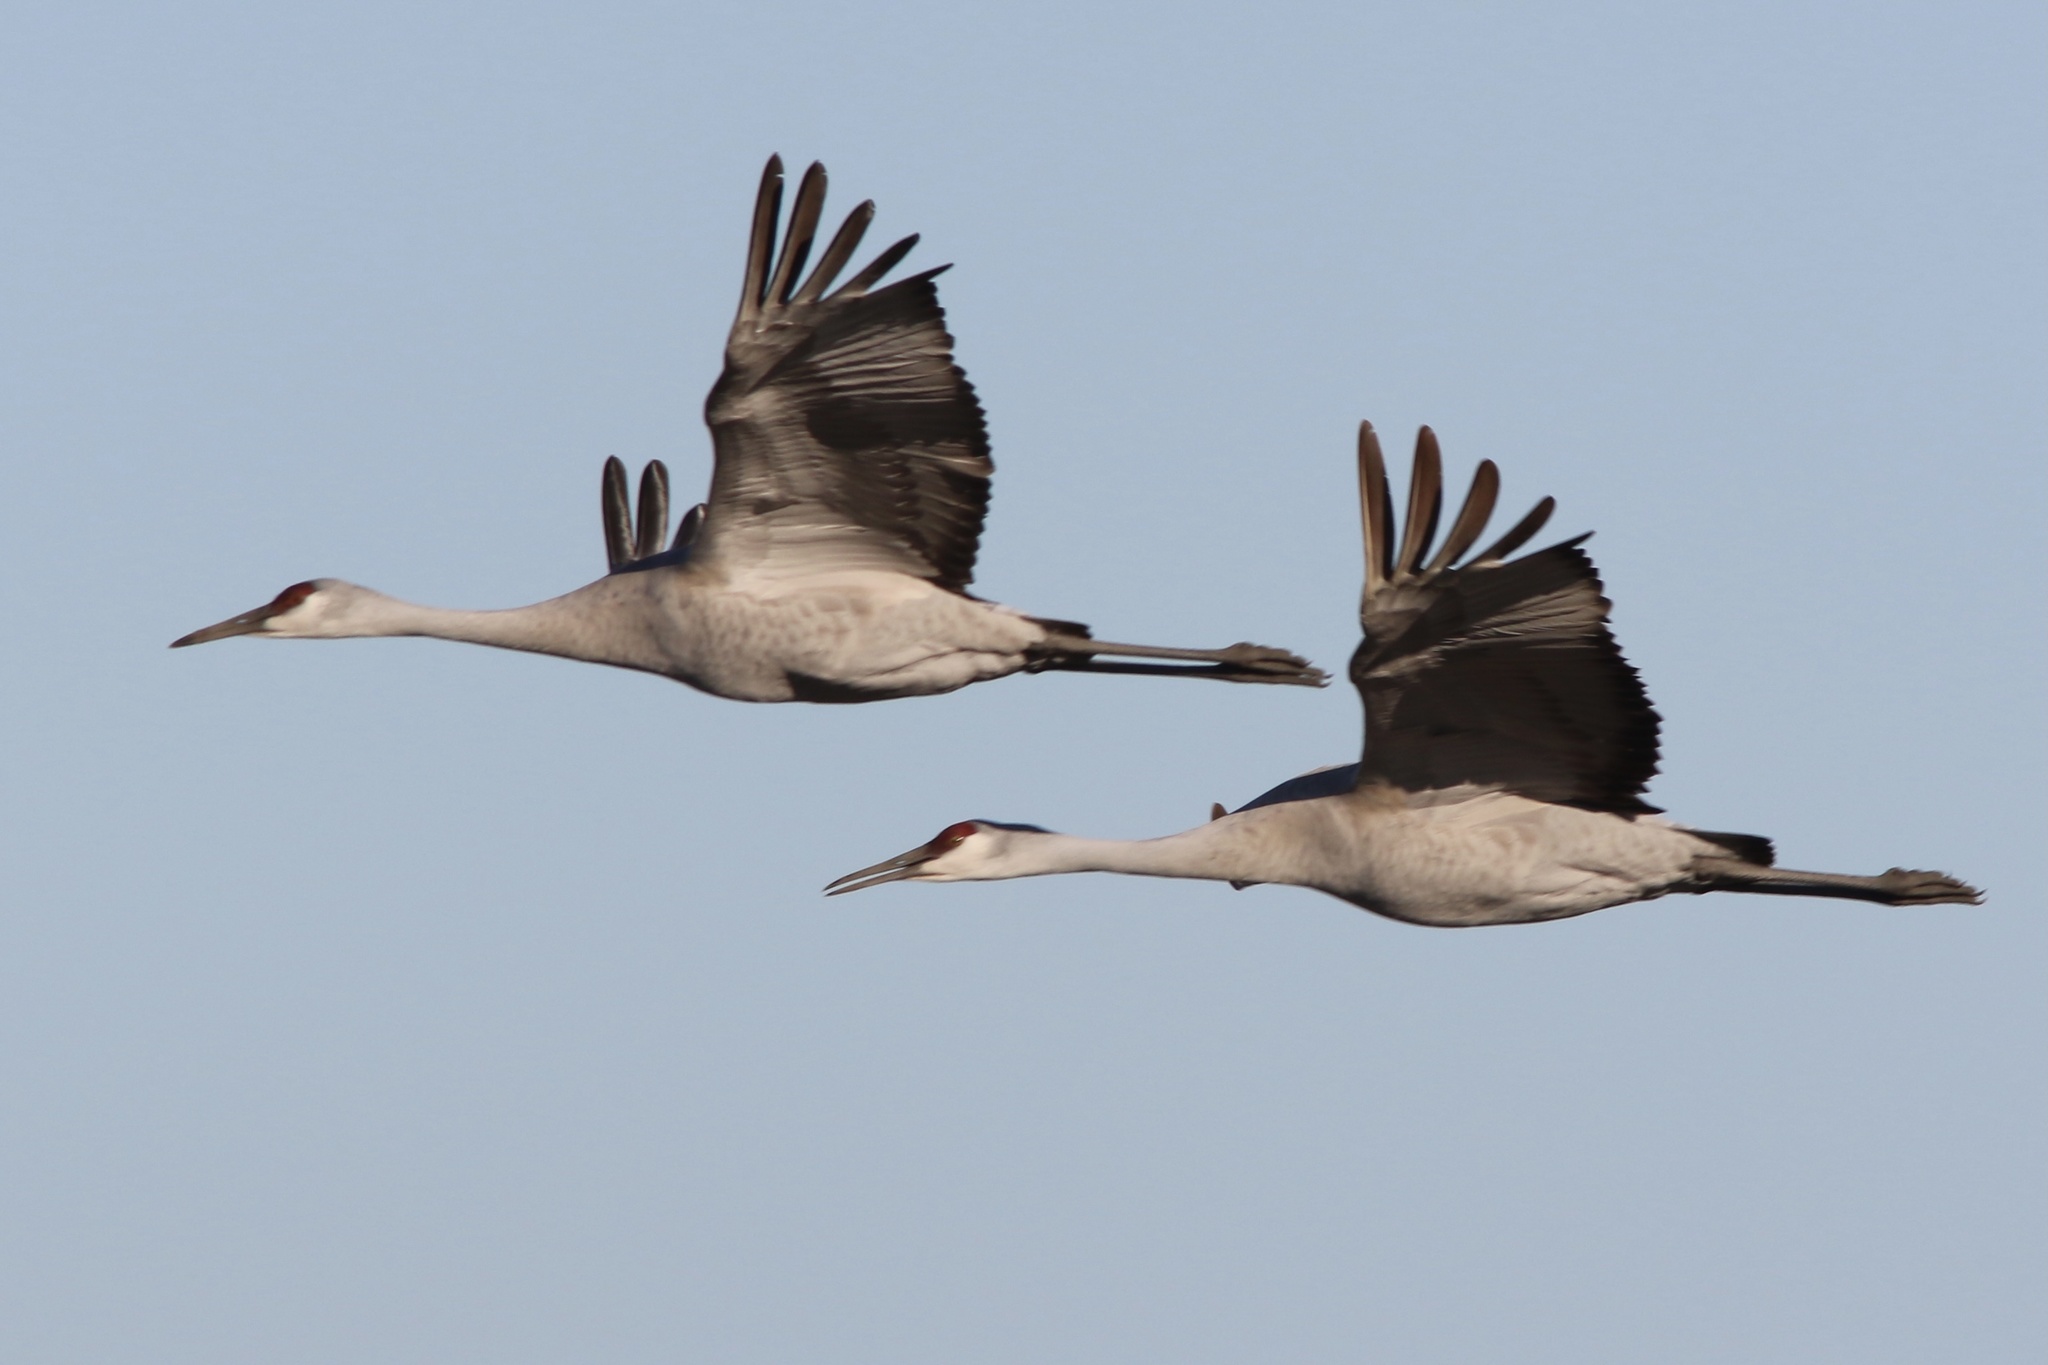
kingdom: Animalia
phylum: Chordata
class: Aves
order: Gruiformes
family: Gruidae
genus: Grus
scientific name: Grus canadensis
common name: Sandhill crane
